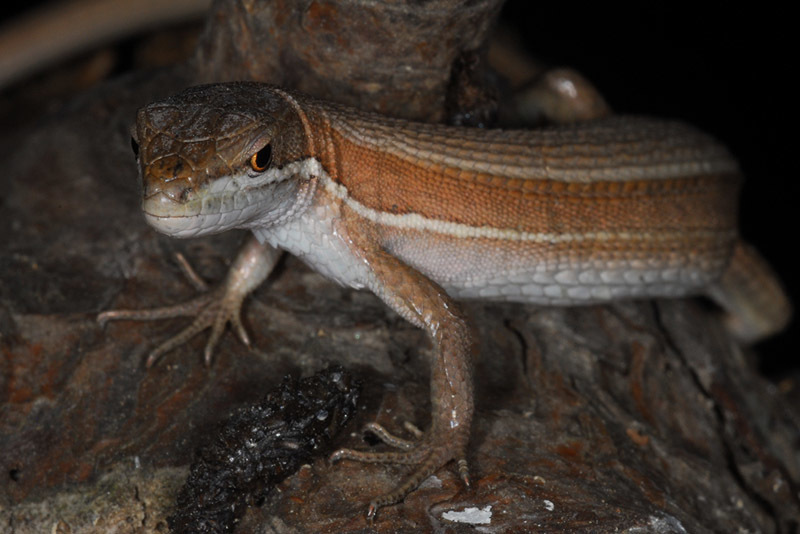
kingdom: Animalia
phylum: Chordata
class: Squamata
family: Lacertidae
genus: Takydromus
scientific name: Takydromus wolteri
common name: Mountain grass lizard
